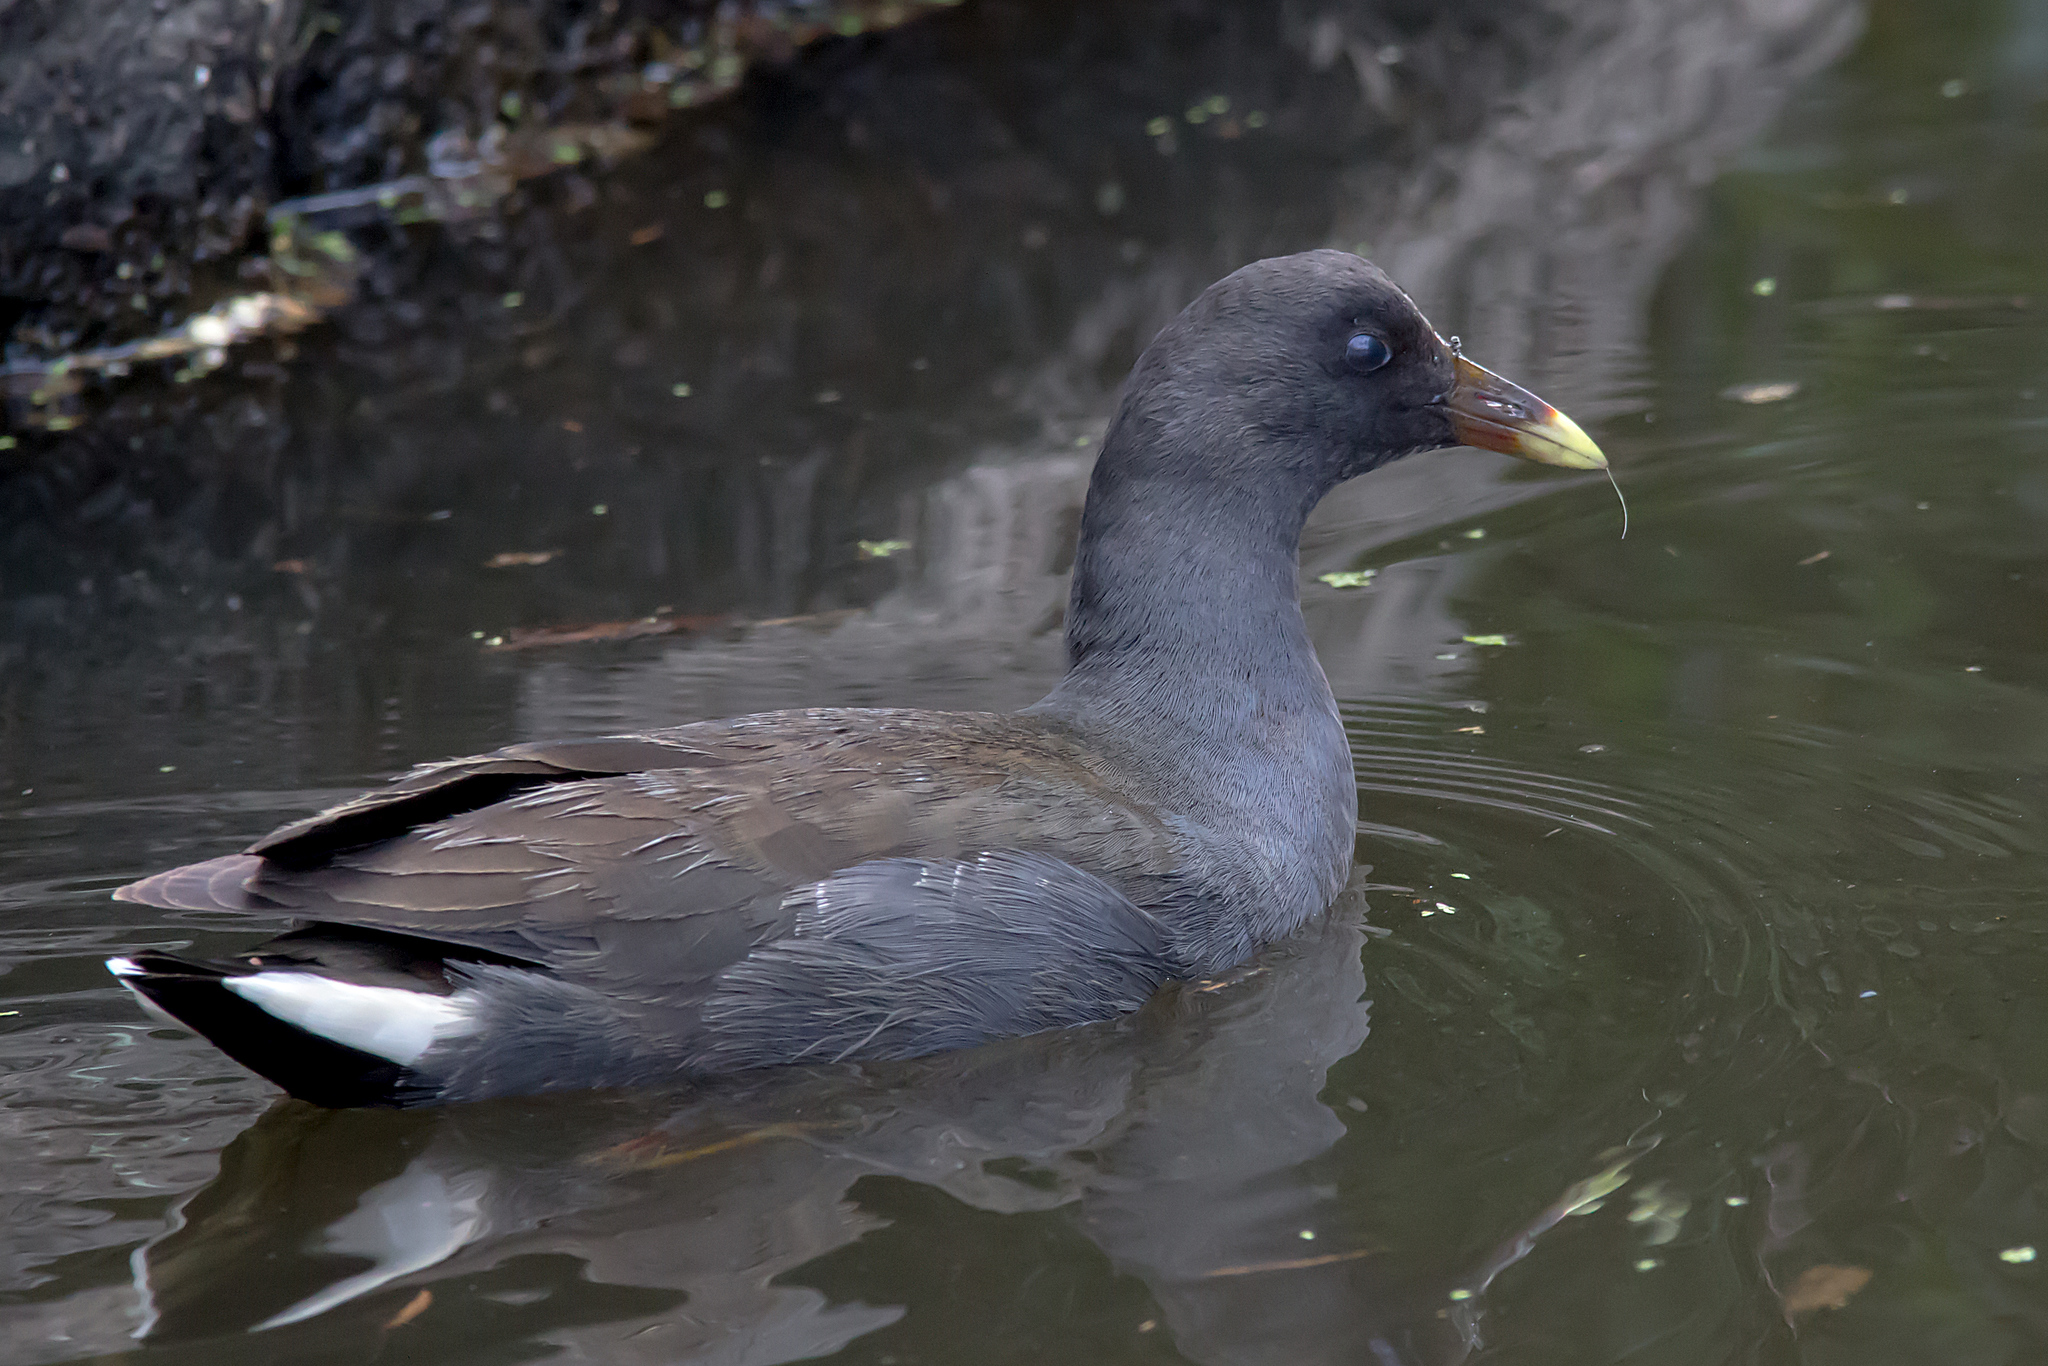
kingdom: Animalia
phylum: Chordata
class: Aves
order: Gruiformes
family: Rallidae
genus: Gallinula
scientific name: Gallinula tenebrosa
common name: Dusky moorhen
